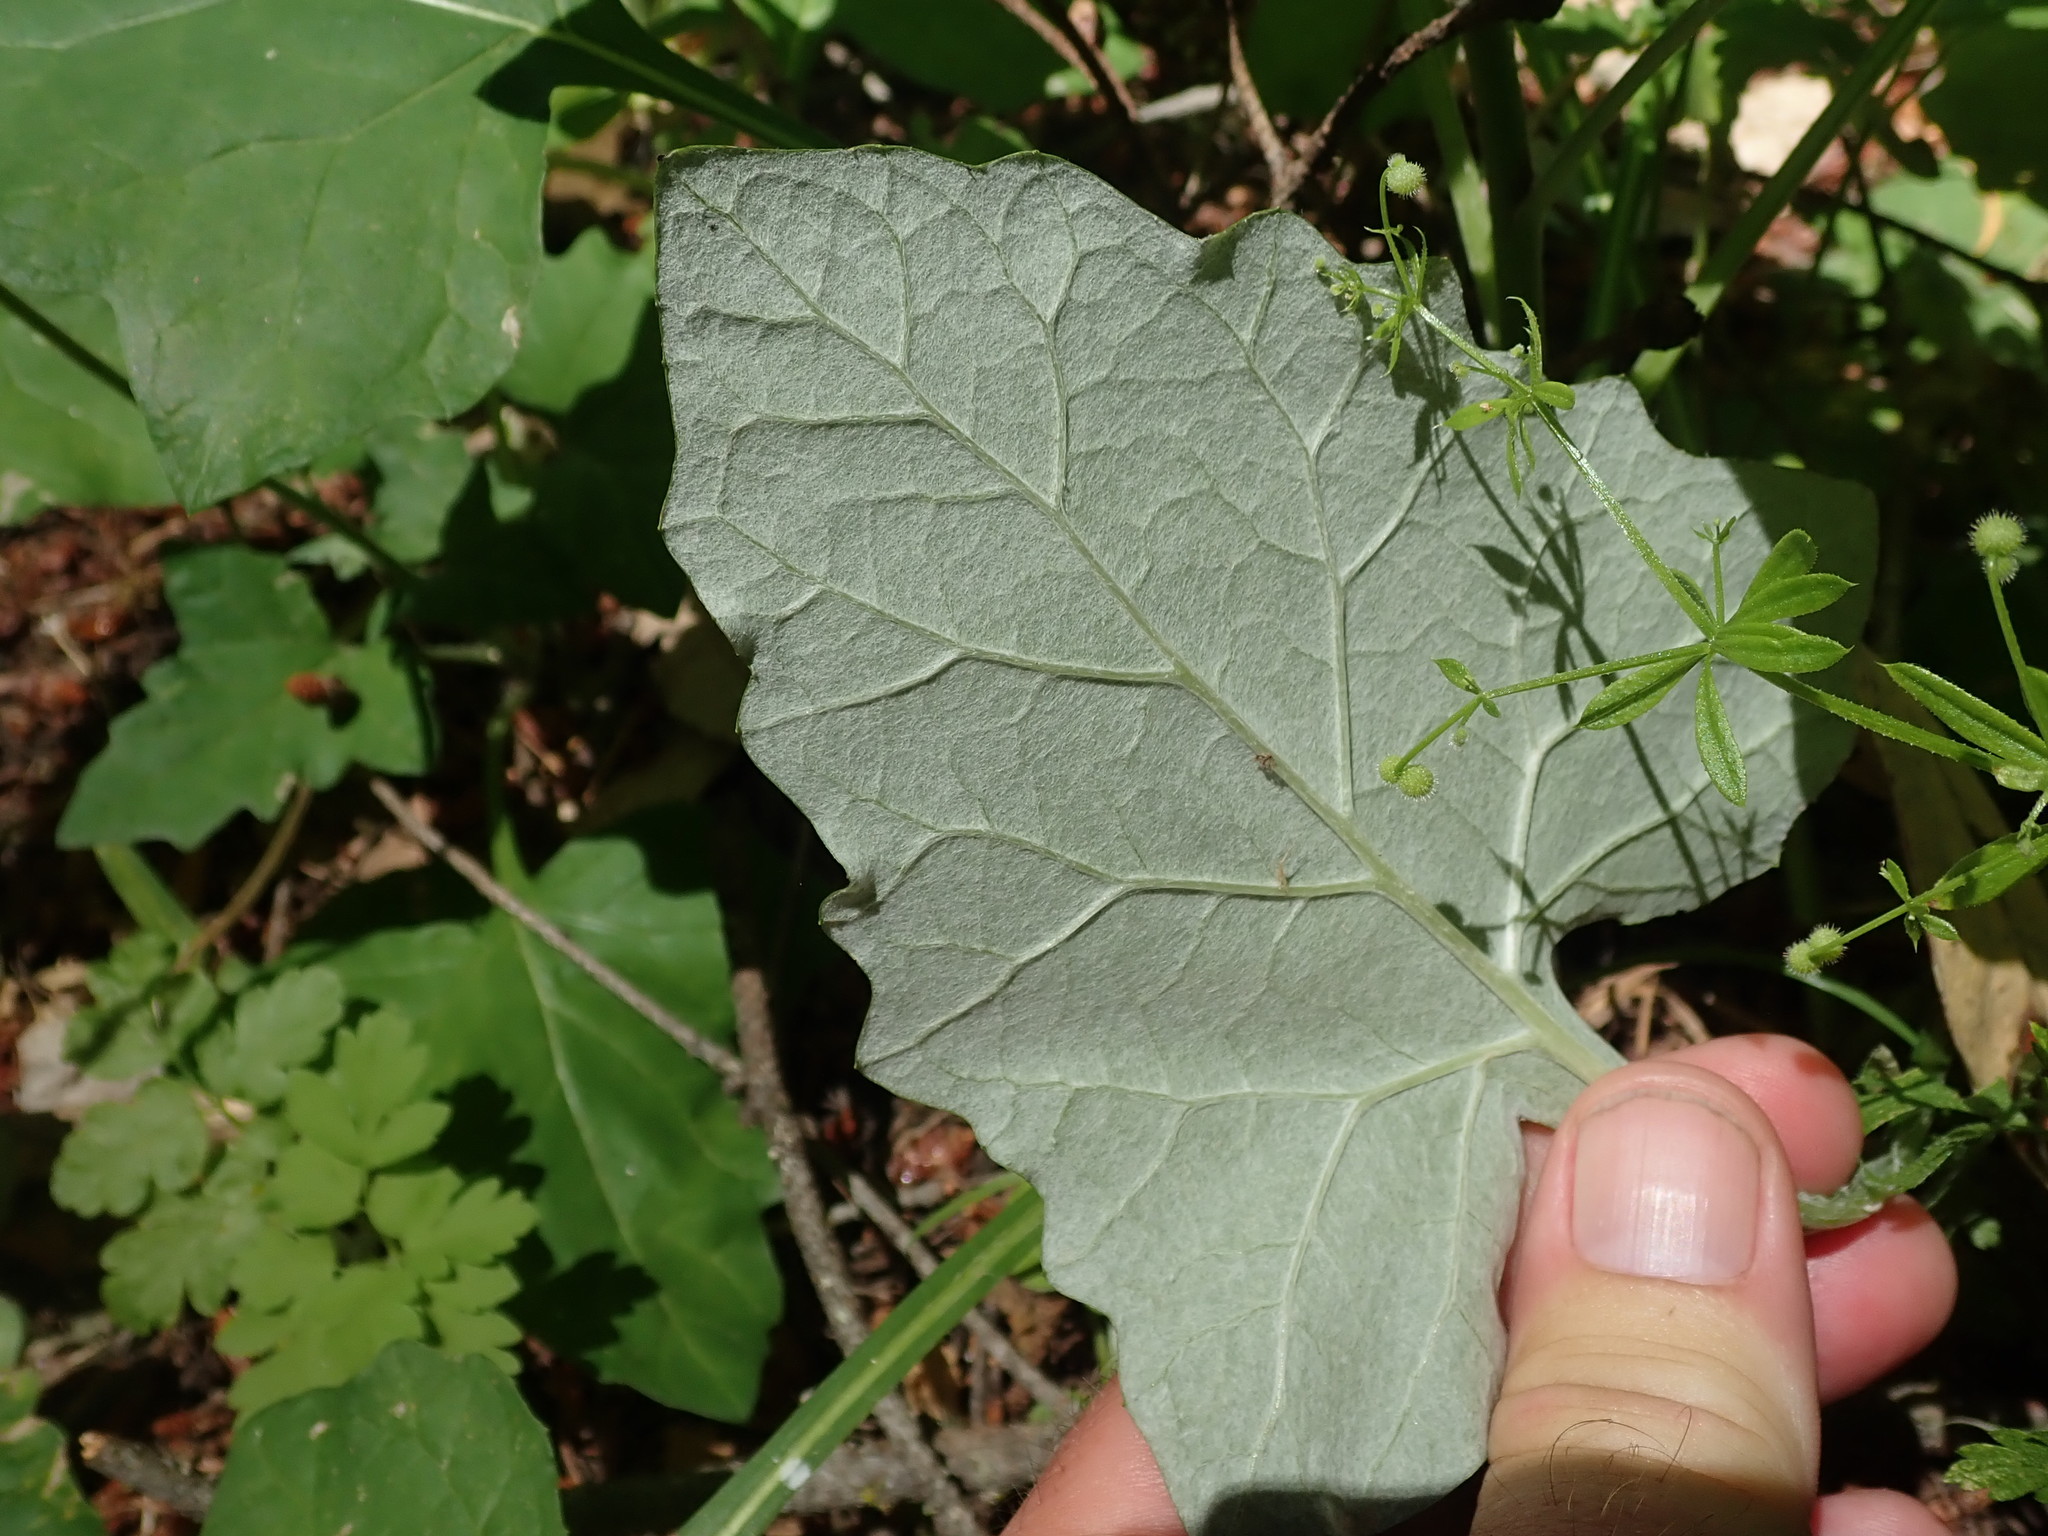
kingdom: Plantae
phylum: Tracheophyta
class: Magnoliopsida
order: Asterales
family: Asteraceae
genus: Adenocaulon
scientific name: Adenocaulon bicolor
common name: Trailplant
